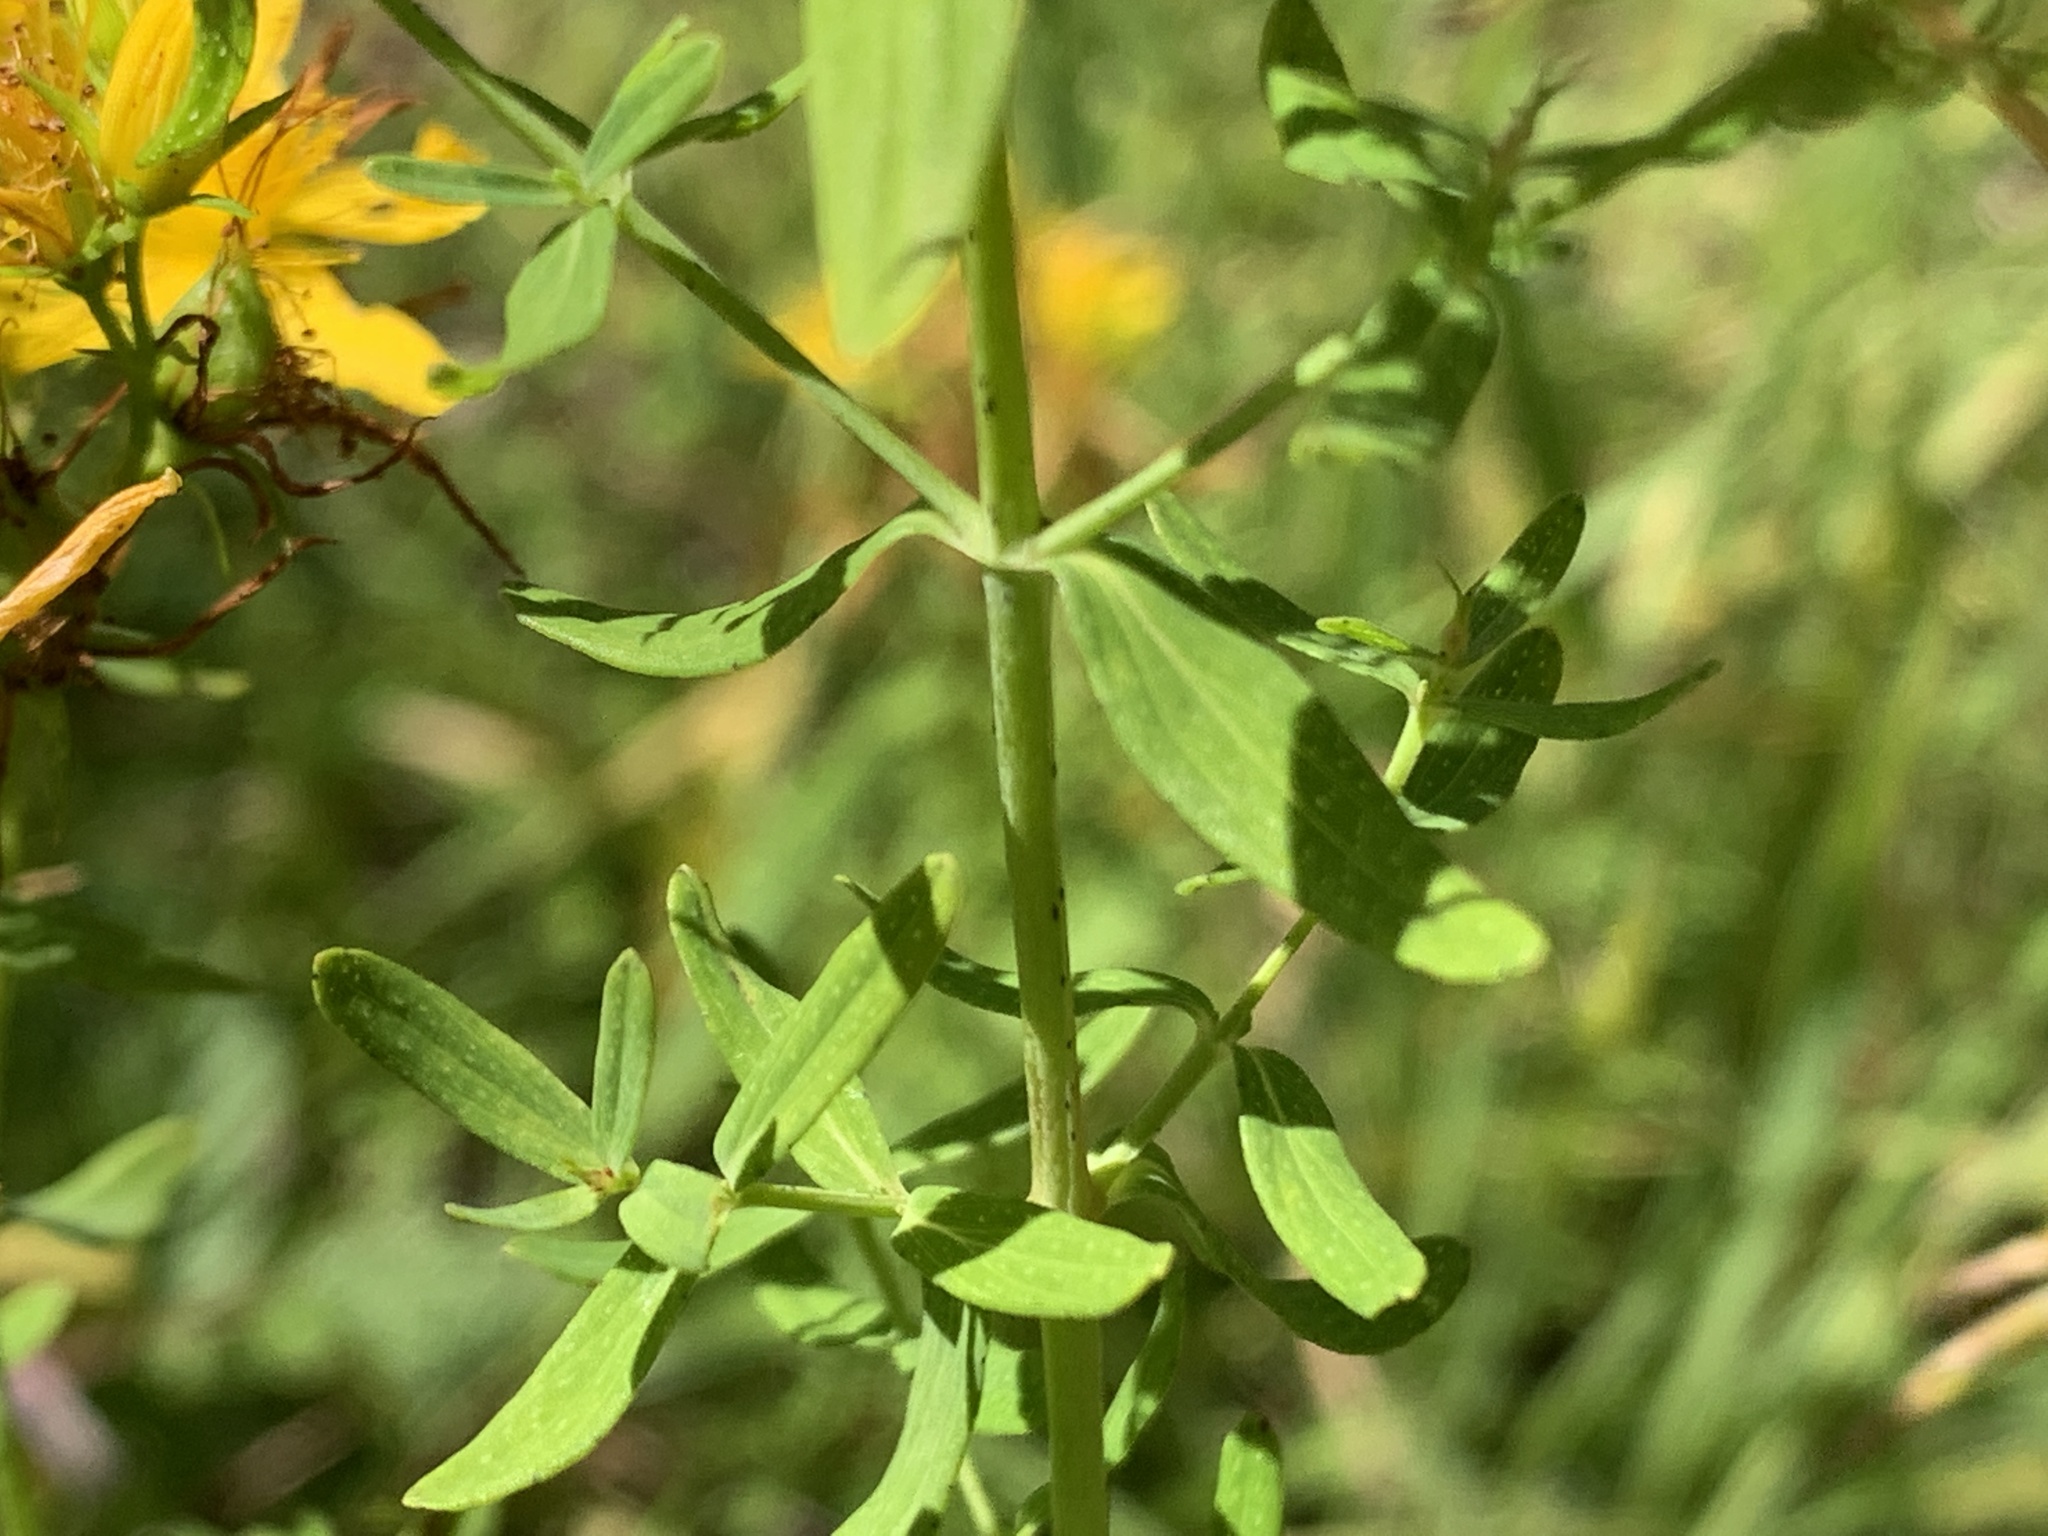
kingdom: Plantae
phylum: Tracheophyta
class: Magnoliopsida
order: Malpighiales
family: Hypericaceae
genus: Hypericum
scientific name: Hypericum perforatum
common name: Common st. johnswort
